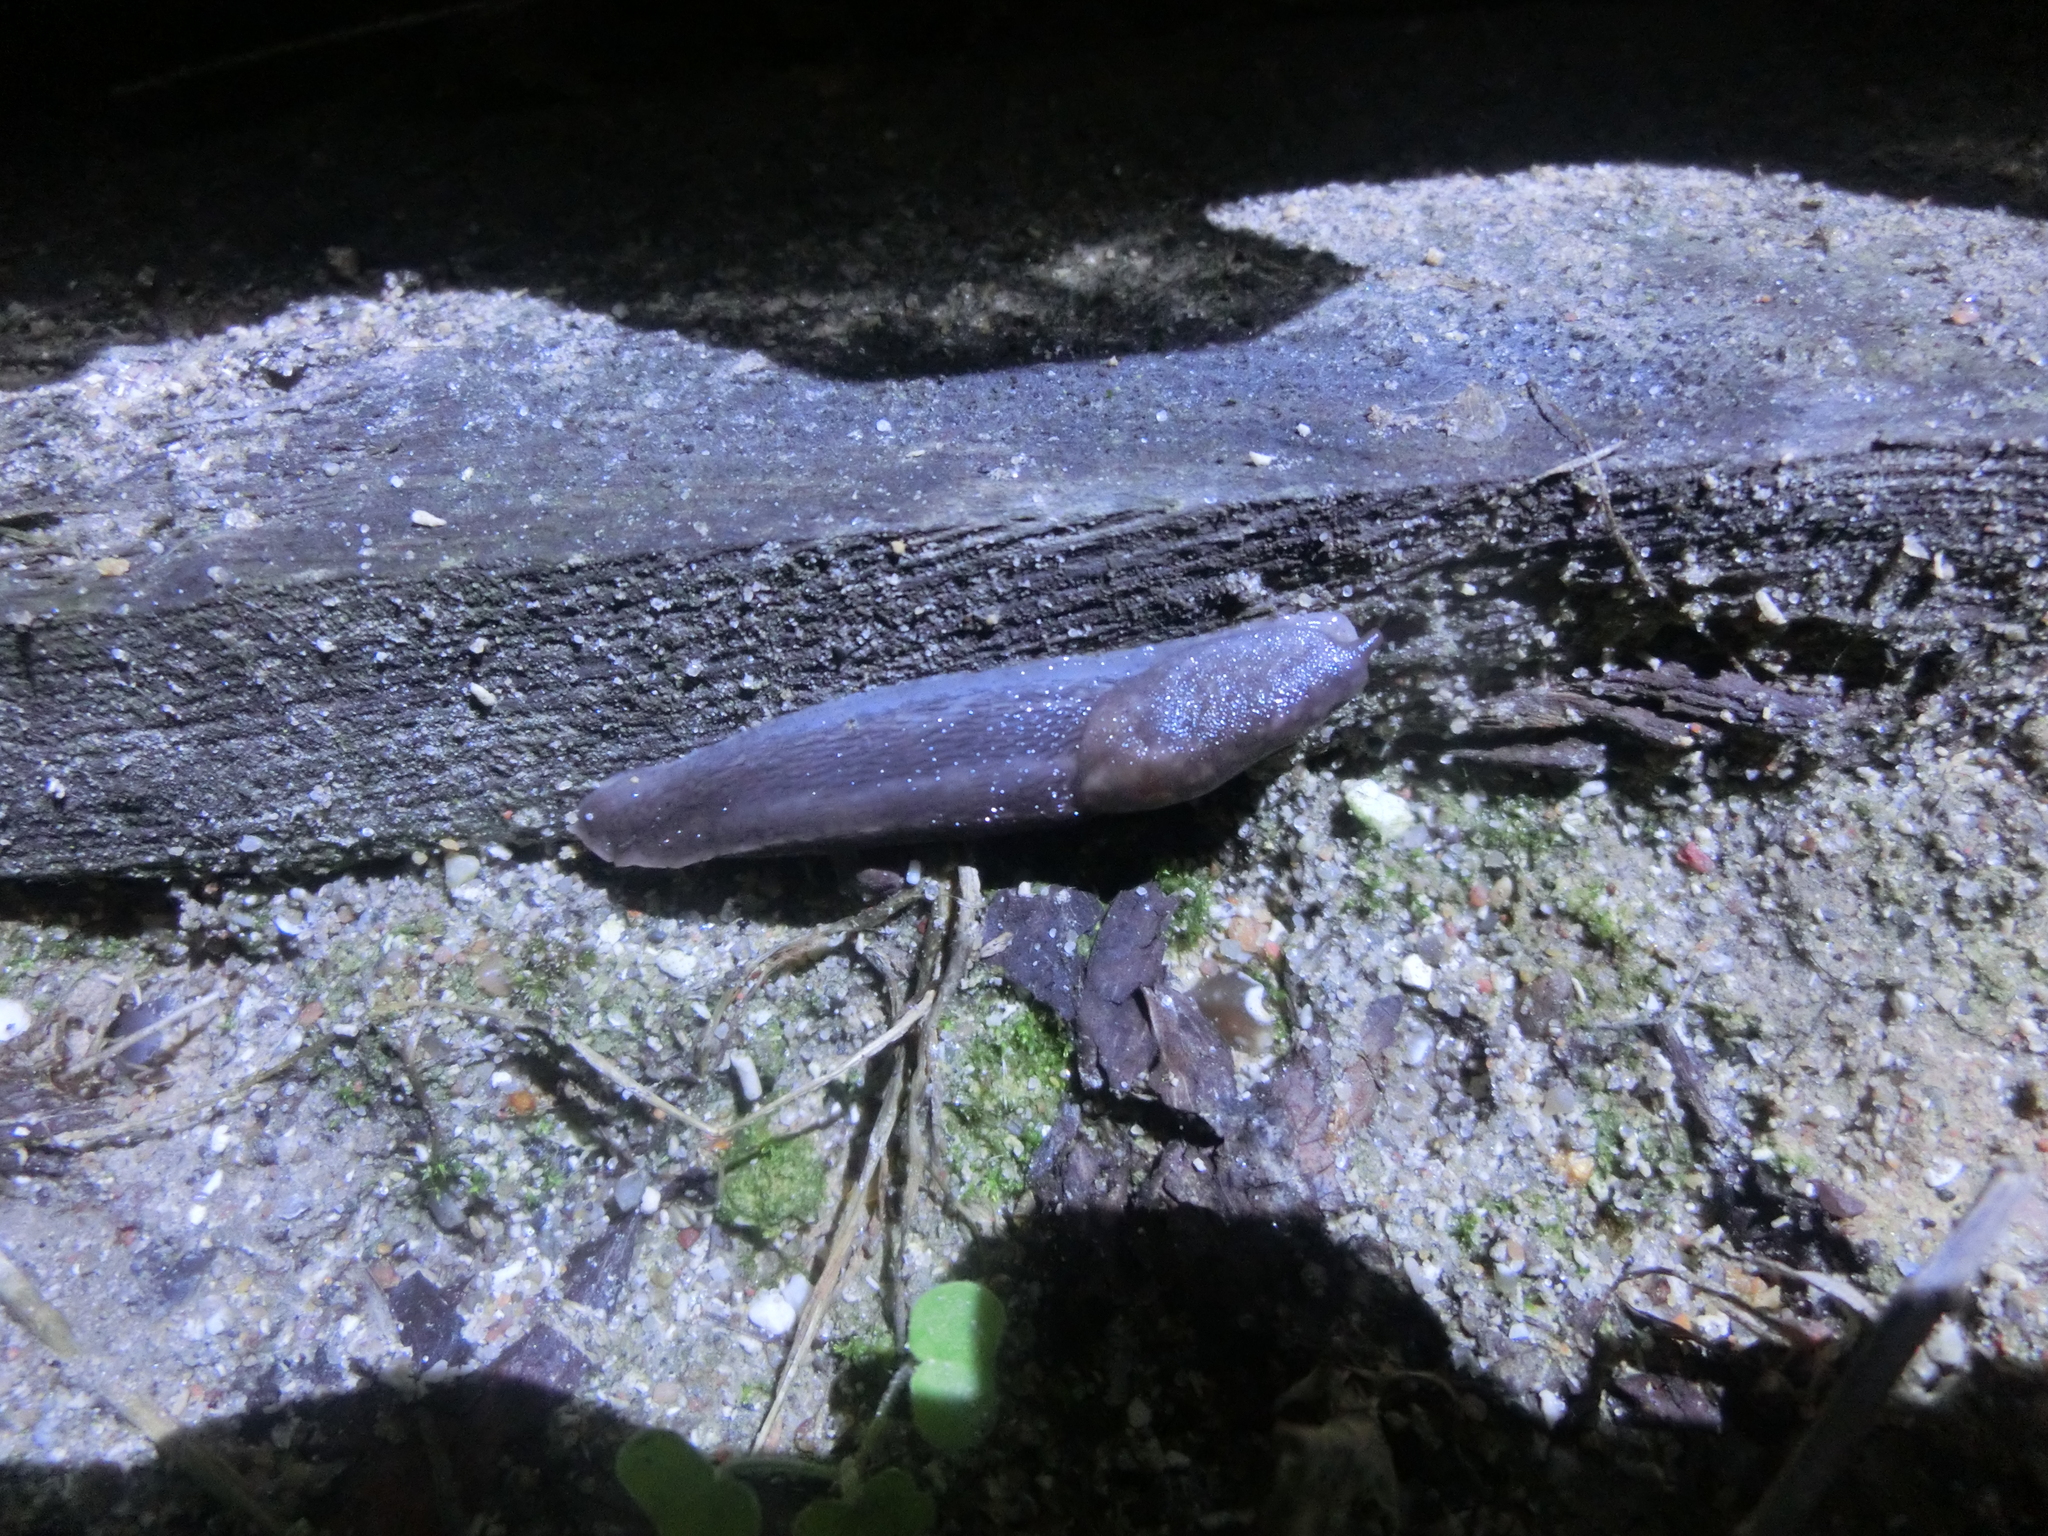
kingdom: Animalia
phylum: Mollusca
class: Gastropoda
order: Stylommatophora
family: Limacidae
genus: Limax
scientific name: Limax maximus
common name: Great grey slug
